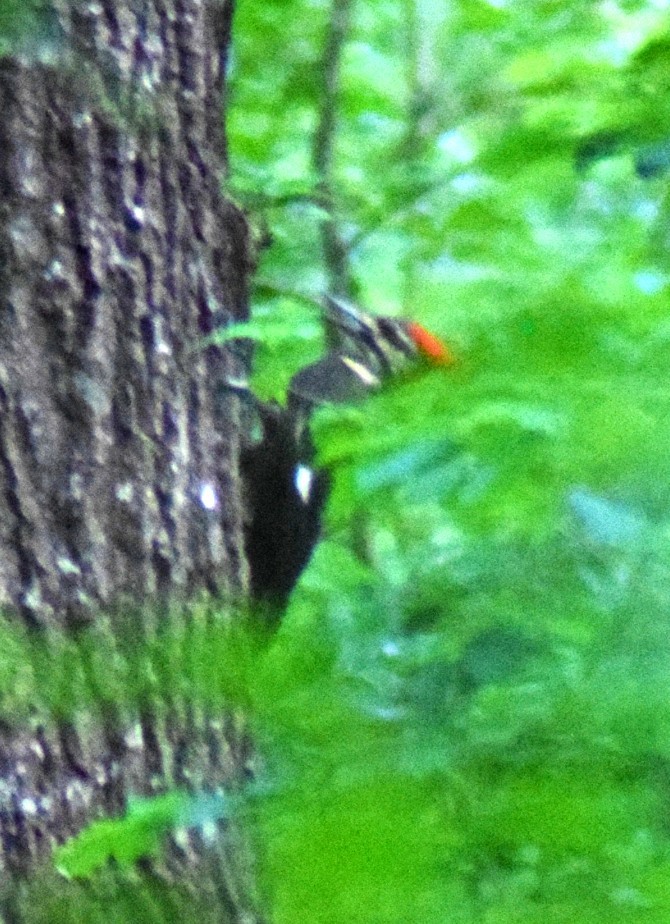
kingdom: Animalia
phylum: Chordata
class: Aves
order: Piciformes
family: Picidae
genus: Dryocopus
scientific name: Dryocopus pileatus
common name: Pileated woodpecker
